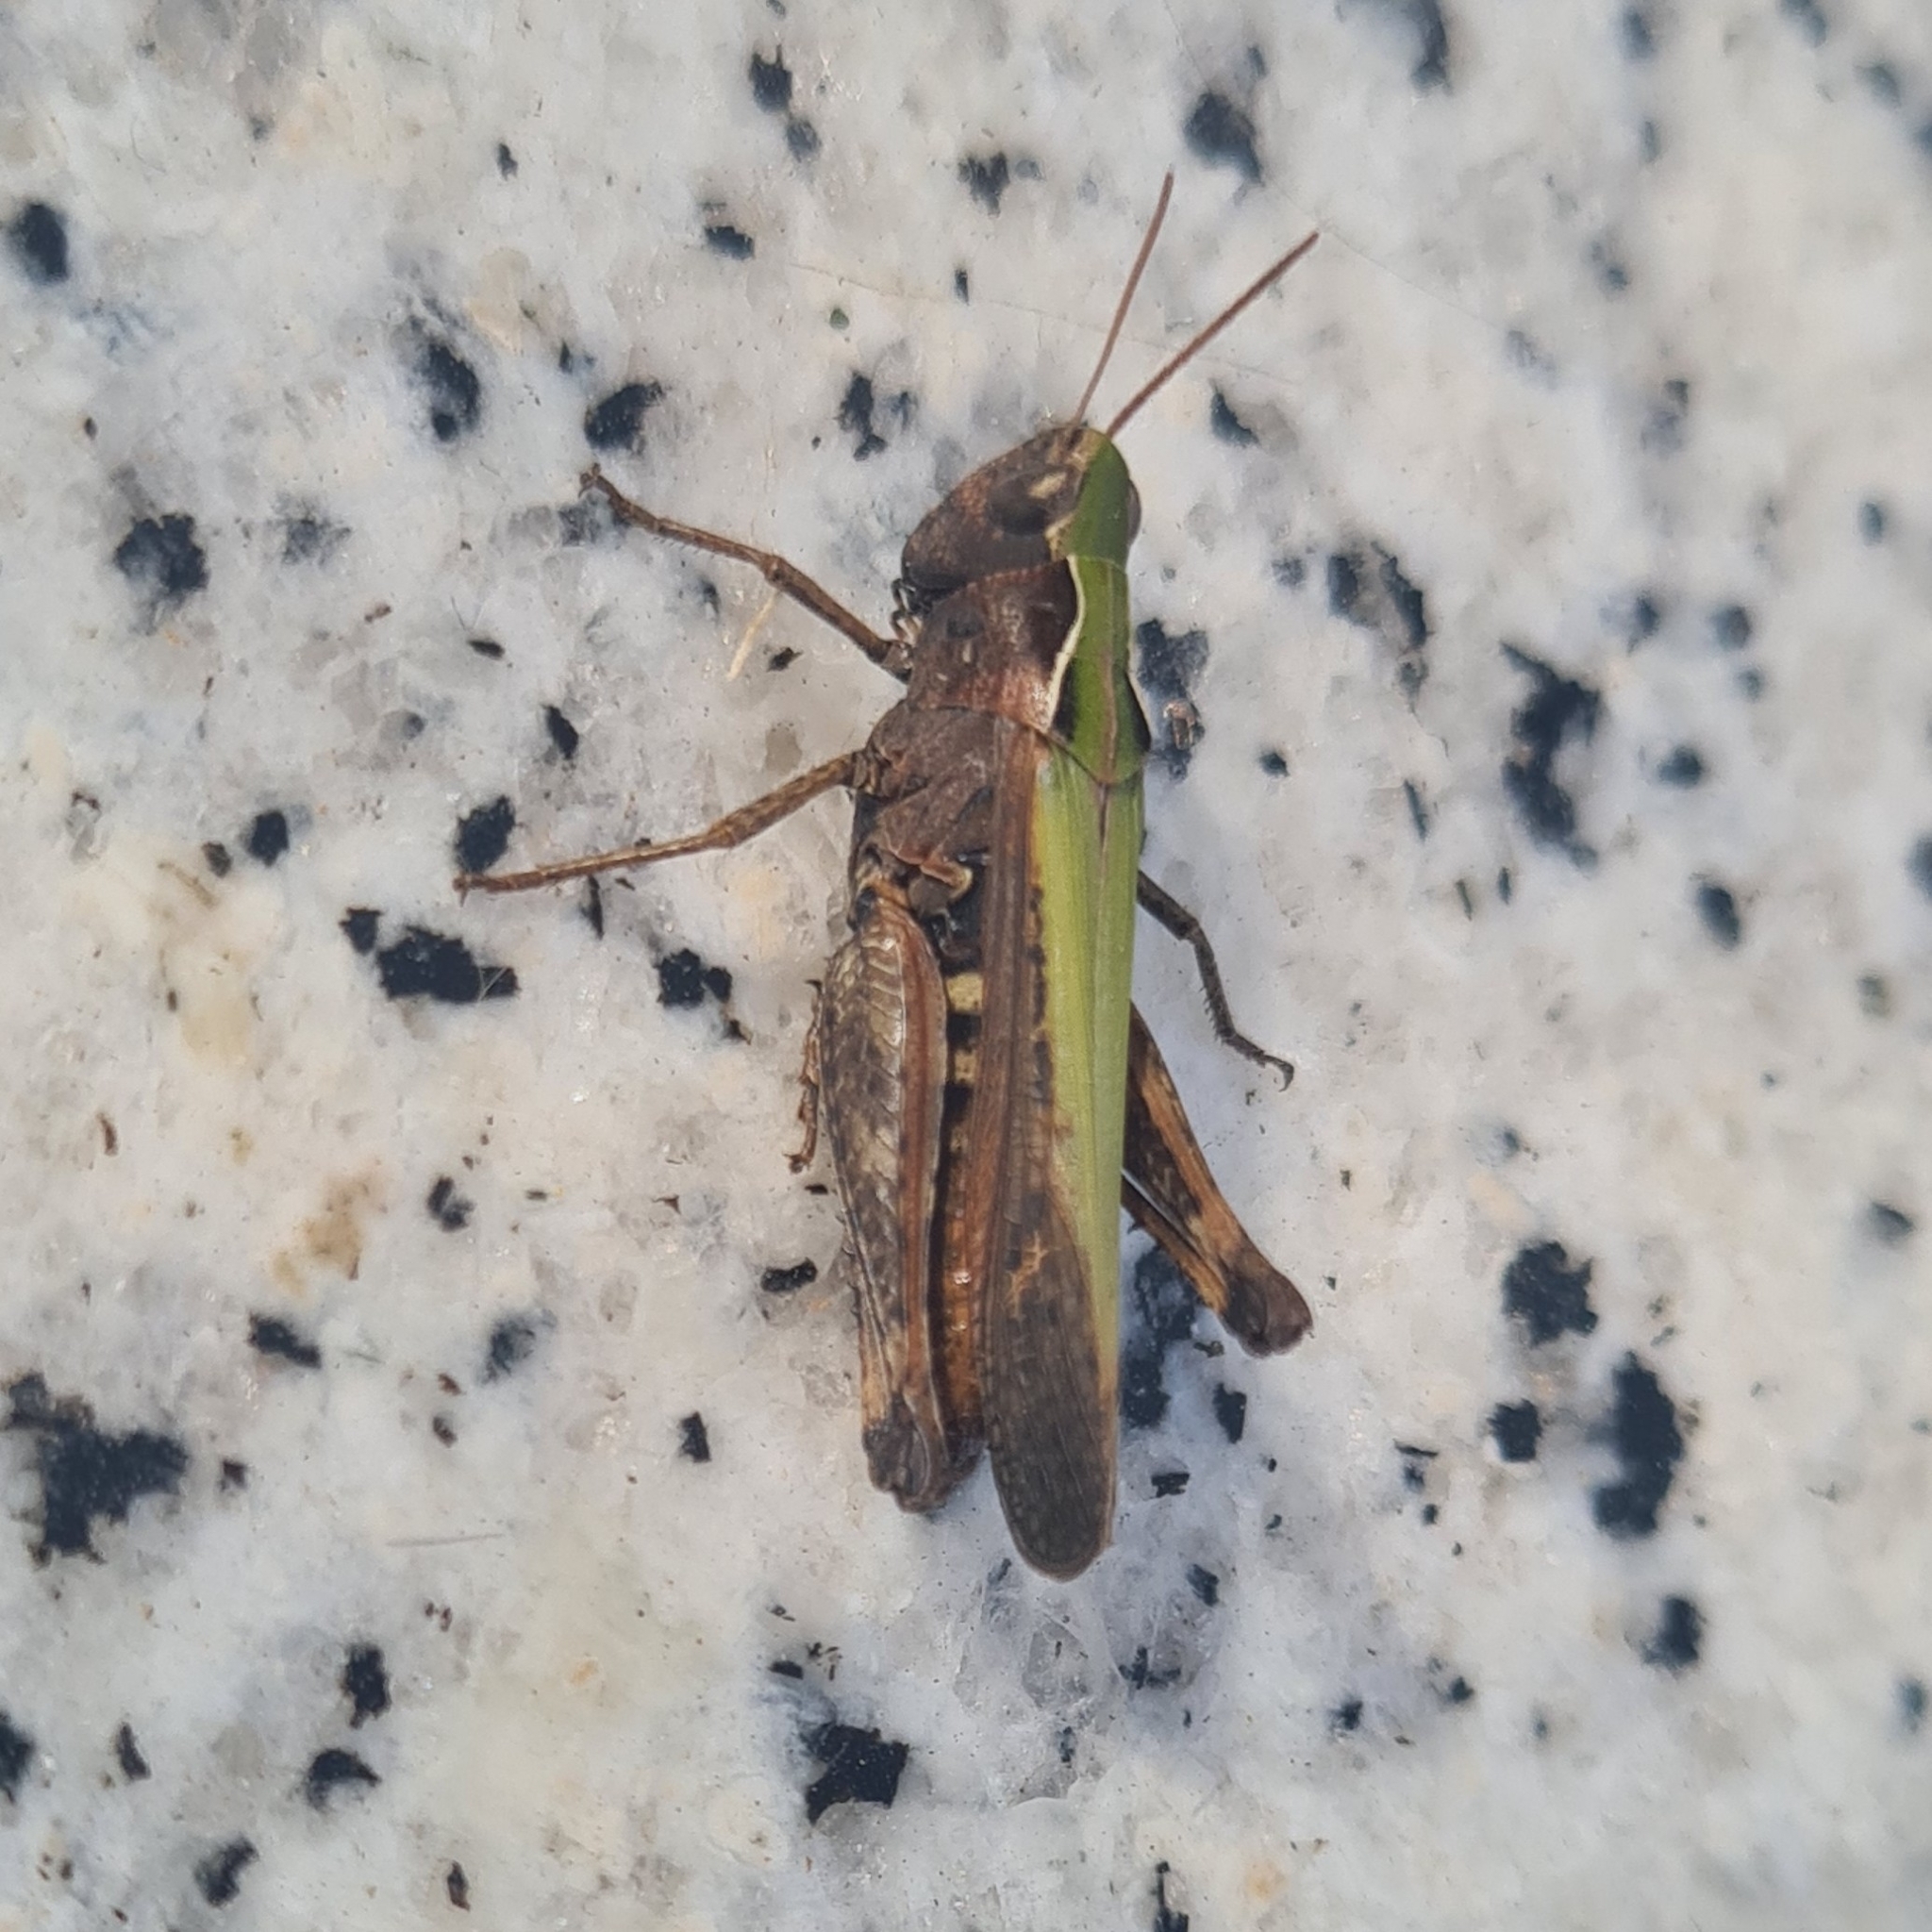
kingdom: Animalia
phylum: Arthropoda
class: Insecta
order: Orthoptera
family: Acrididae
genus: Omocestus
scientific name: Omocestus rufipes
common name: Woodland grasshopper
